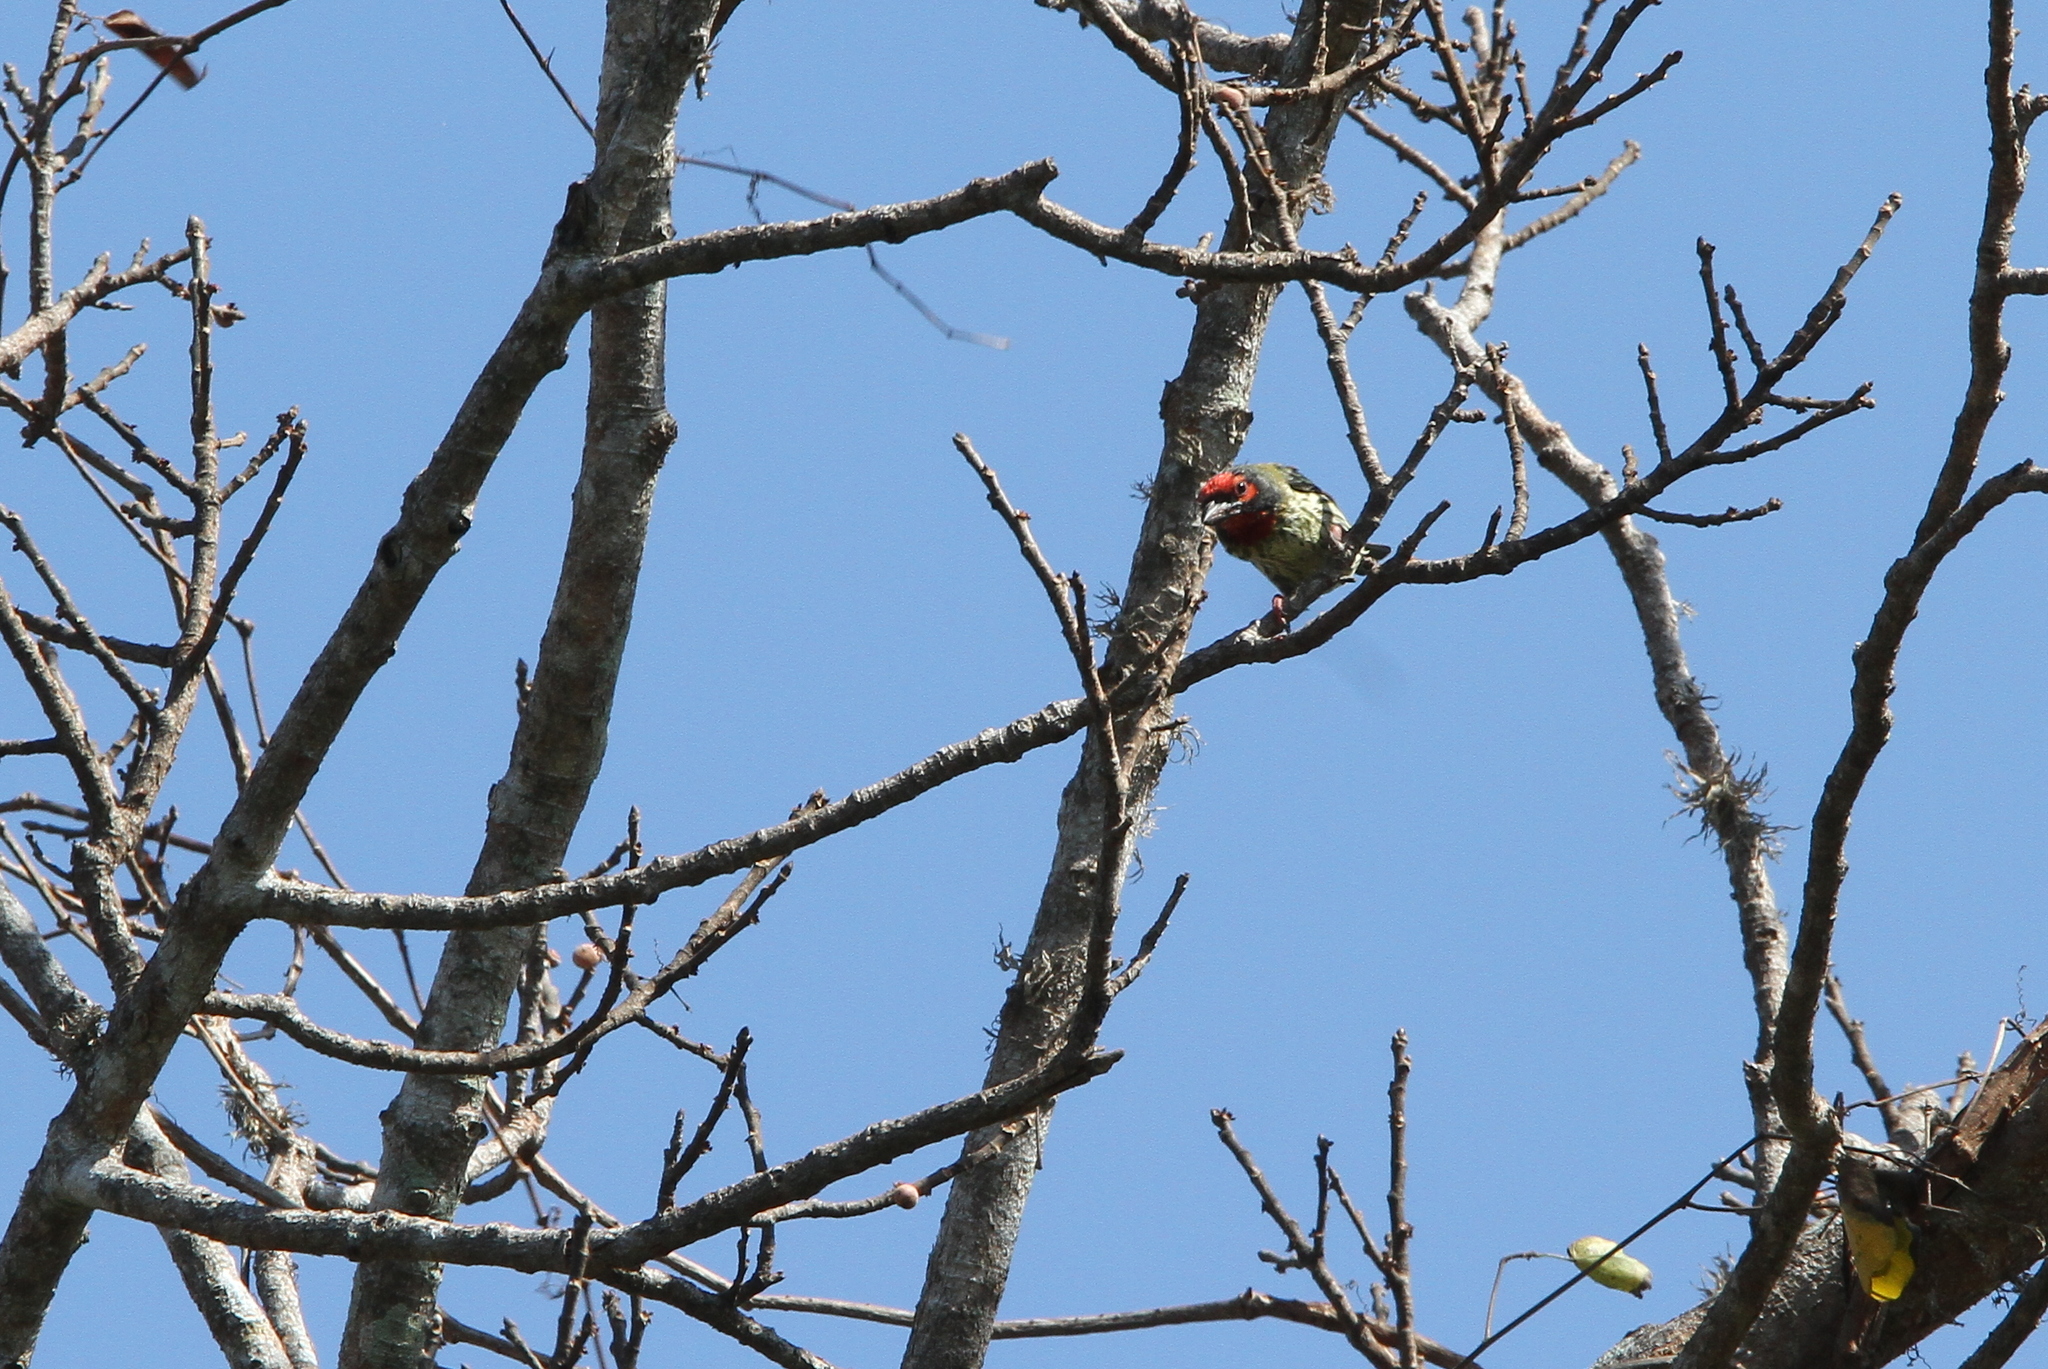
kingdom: Animalia
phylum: Chordata
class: Aves
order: Piciformes
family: Megalaimidae
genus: Psilopogon
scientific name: Psilopogon haemacephalus
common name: Coppersmith barbet
